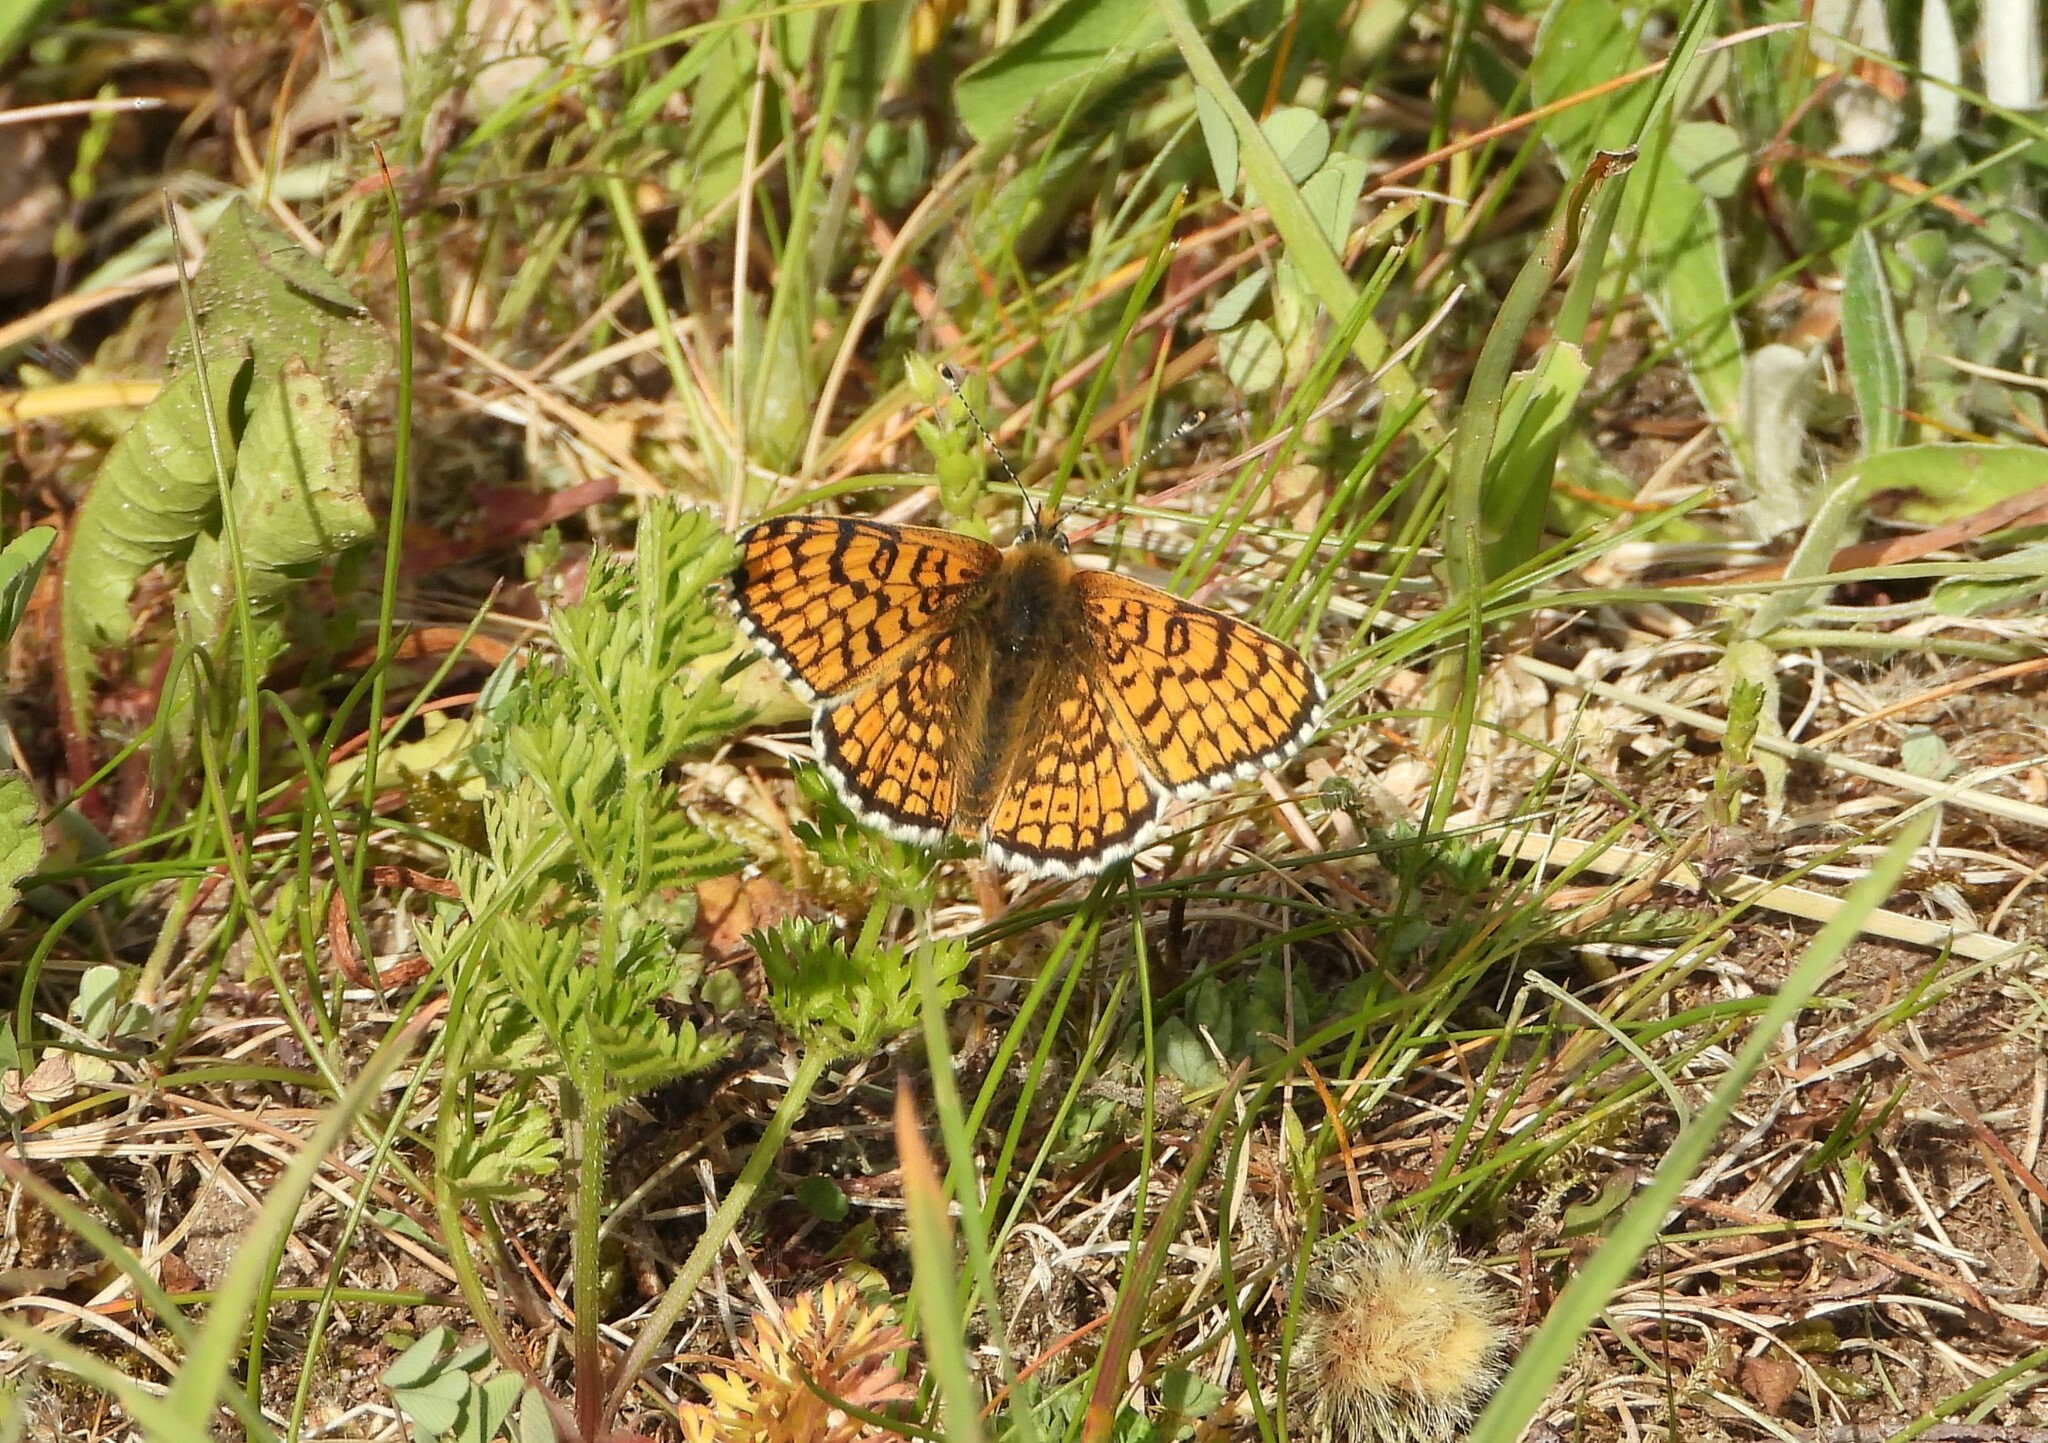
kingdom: Animalia
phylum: Arthropoda
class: Insecta
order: Lepidoptera
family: Nymphalidae
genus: Melitaea
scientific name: Melitaea cinxia
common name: Glanville fritillary
